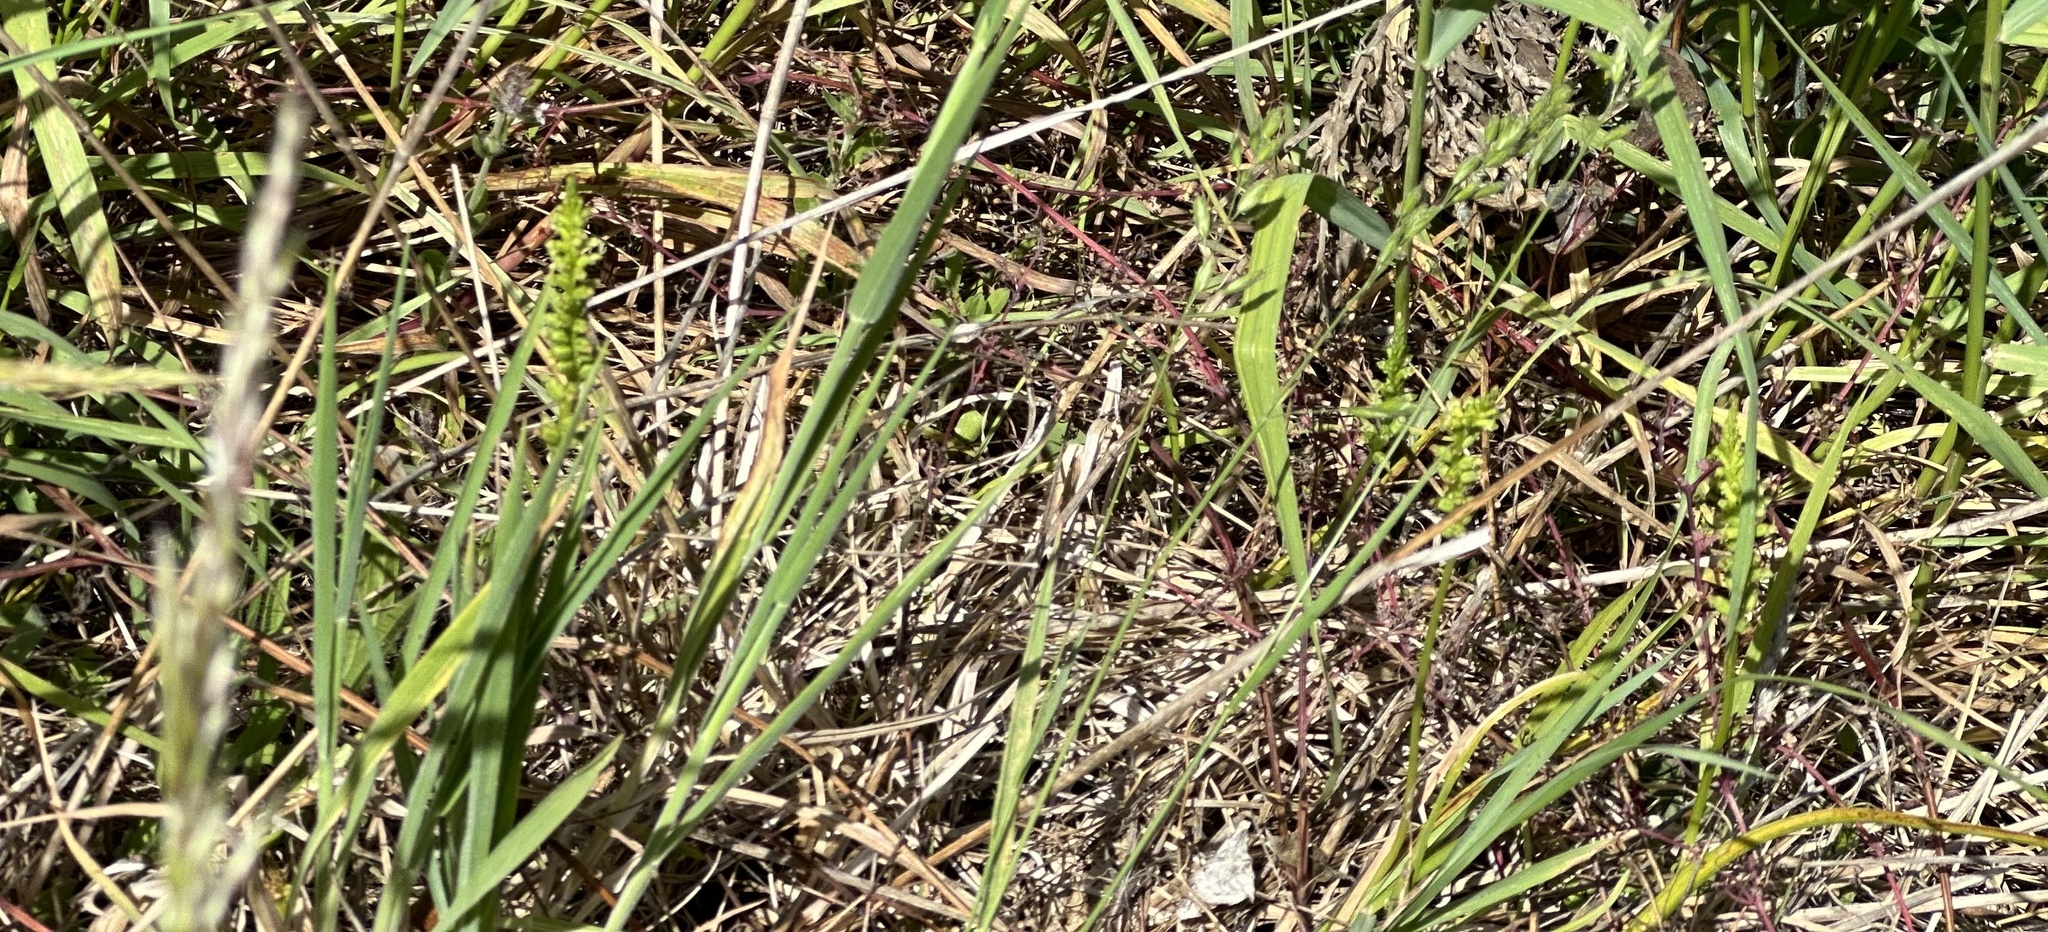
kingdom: Plantae
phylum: Tracheophyta
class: Liliopsida
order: Asparagales
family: Orchidaceae
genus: Microtis
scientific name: Microtis unifolia
